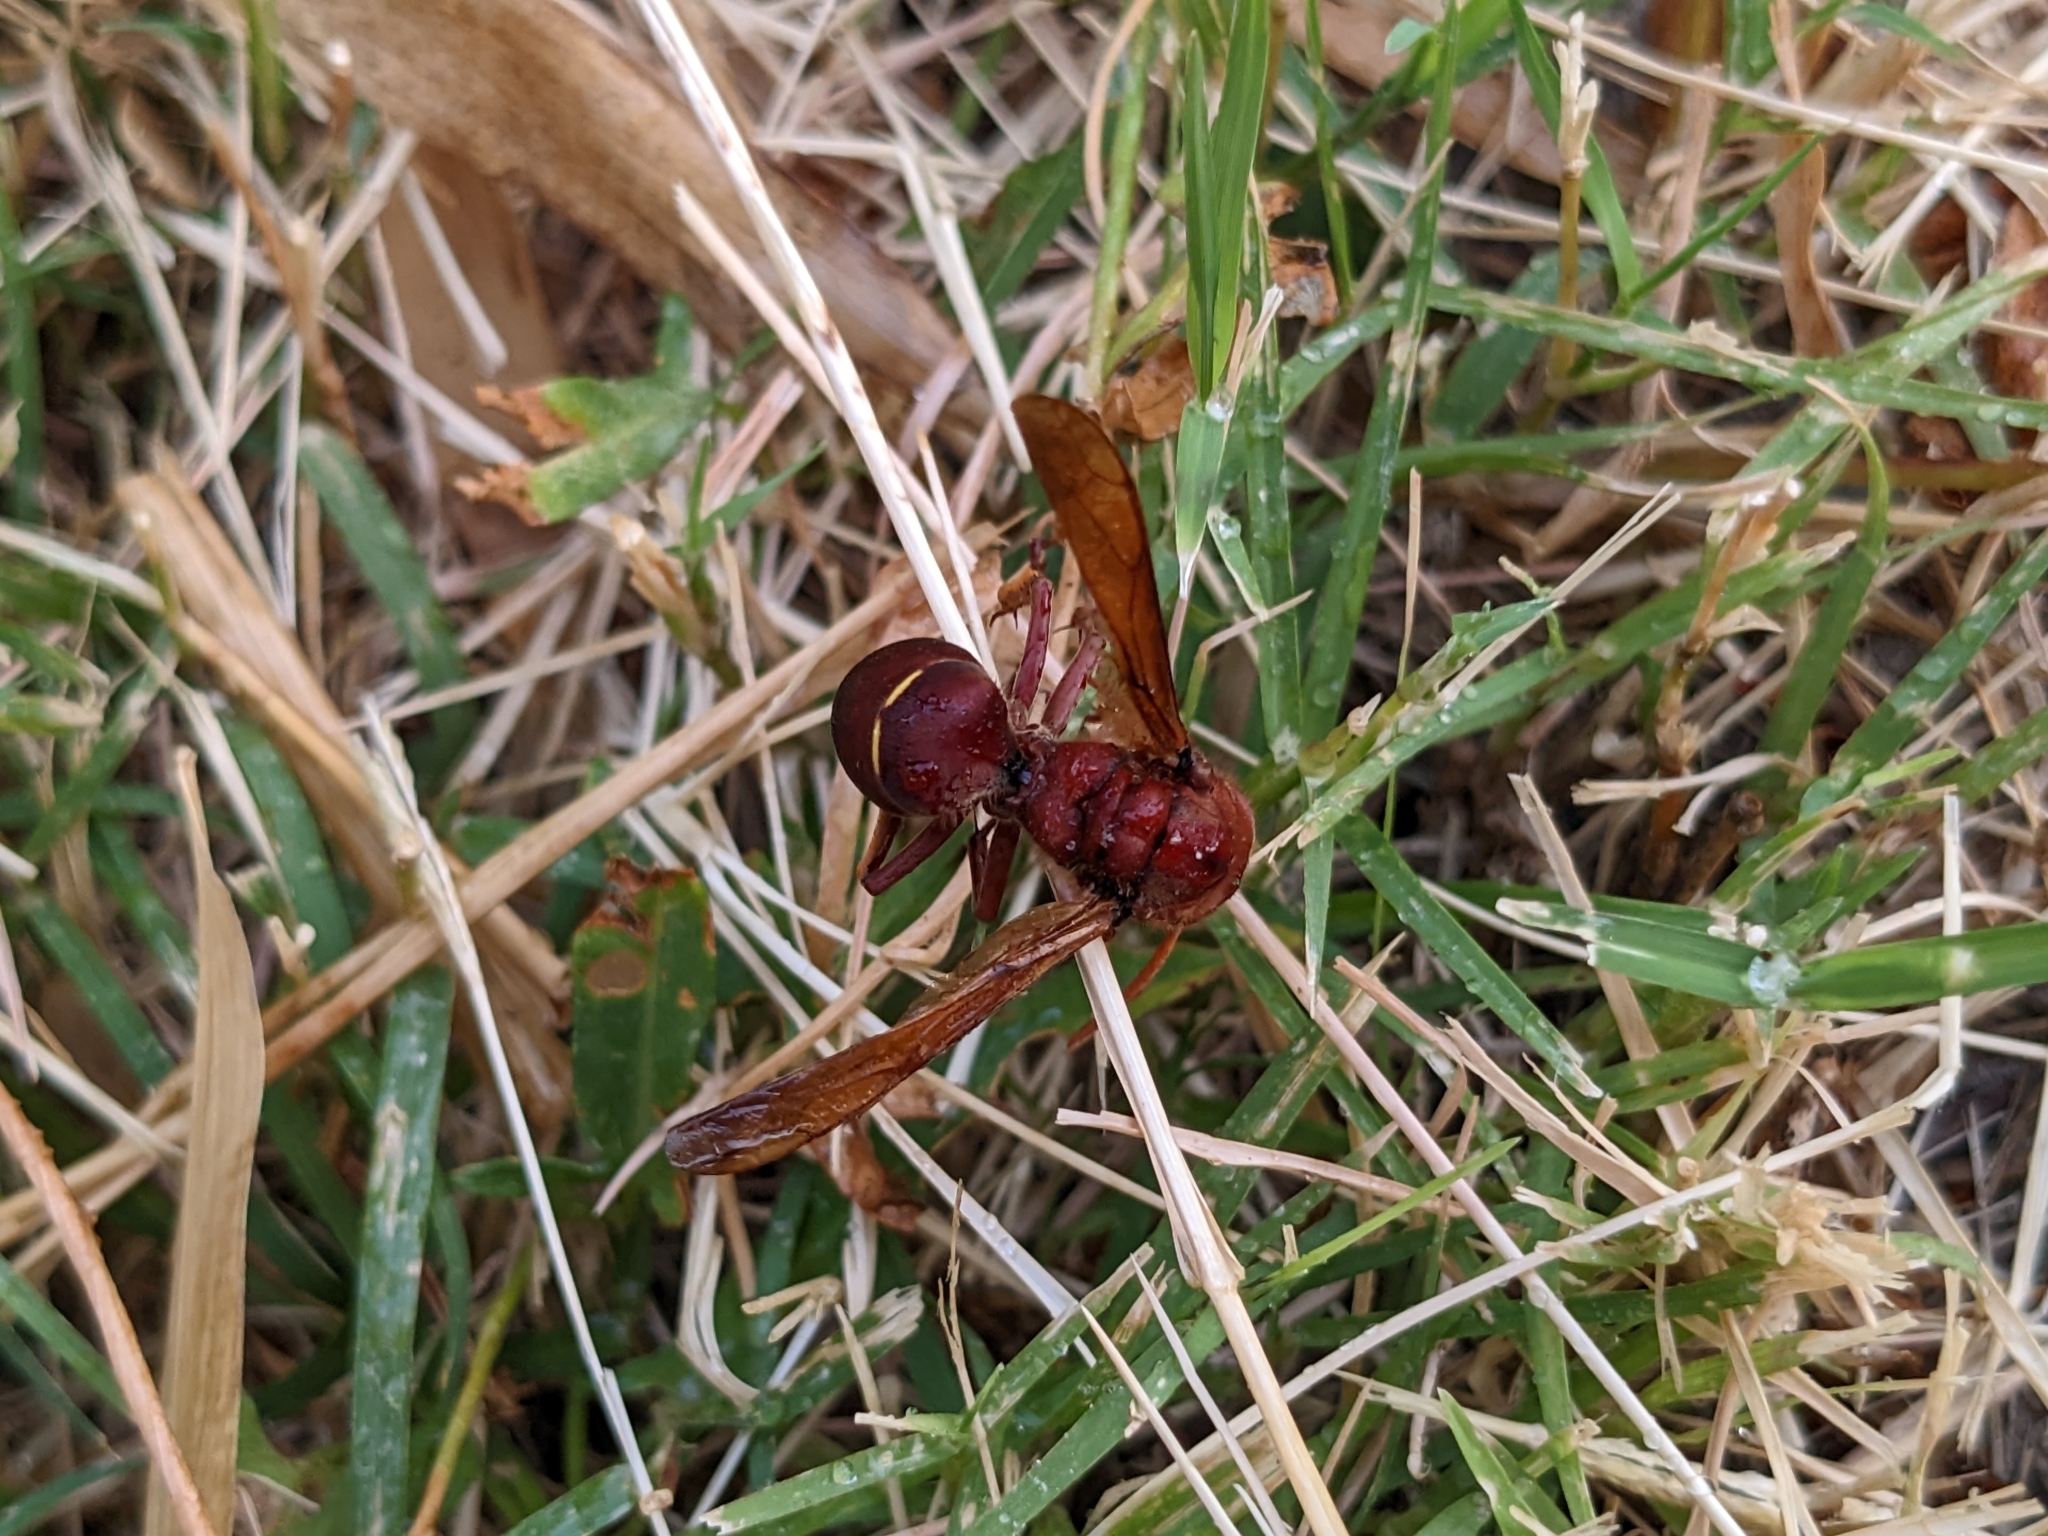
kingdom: Animalia
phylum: Arthropoda
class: Insecta
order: Hymenoptera
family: Vespidae
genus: Vespa
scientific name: Vespa orientalis
